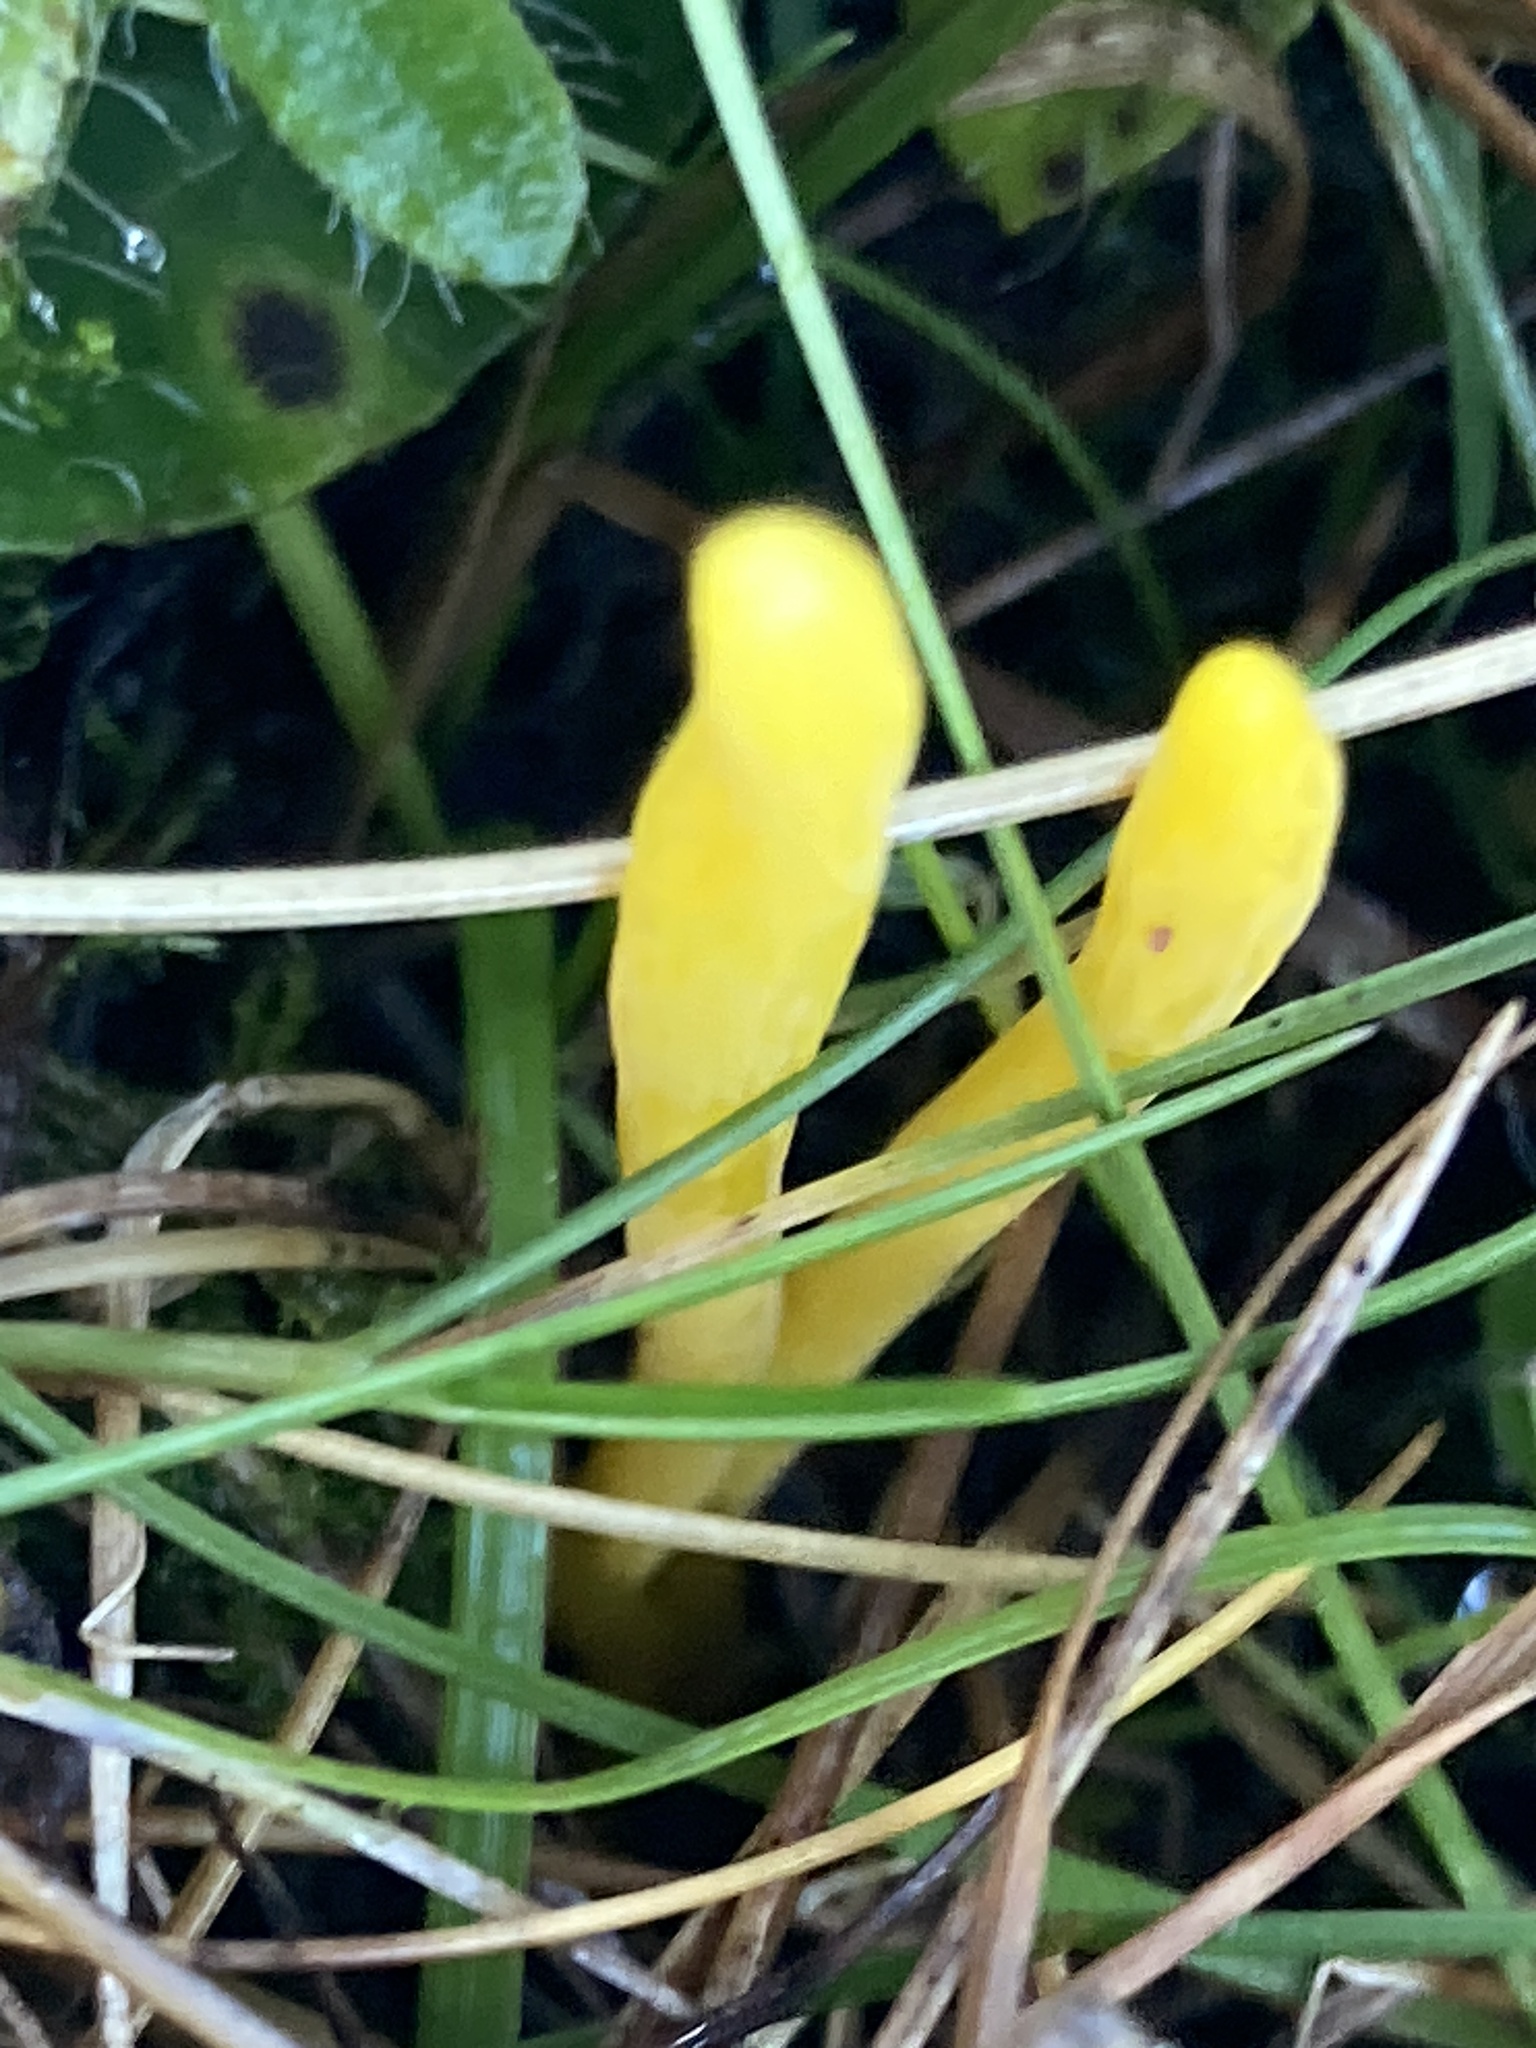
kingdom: Fungi
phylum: Basidiomycota
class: Agaricomycetes
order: Agaricales
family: Clavariaceae
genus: Clavulinopsis
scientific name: Clavulinopsis helvola
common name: Yellow club
